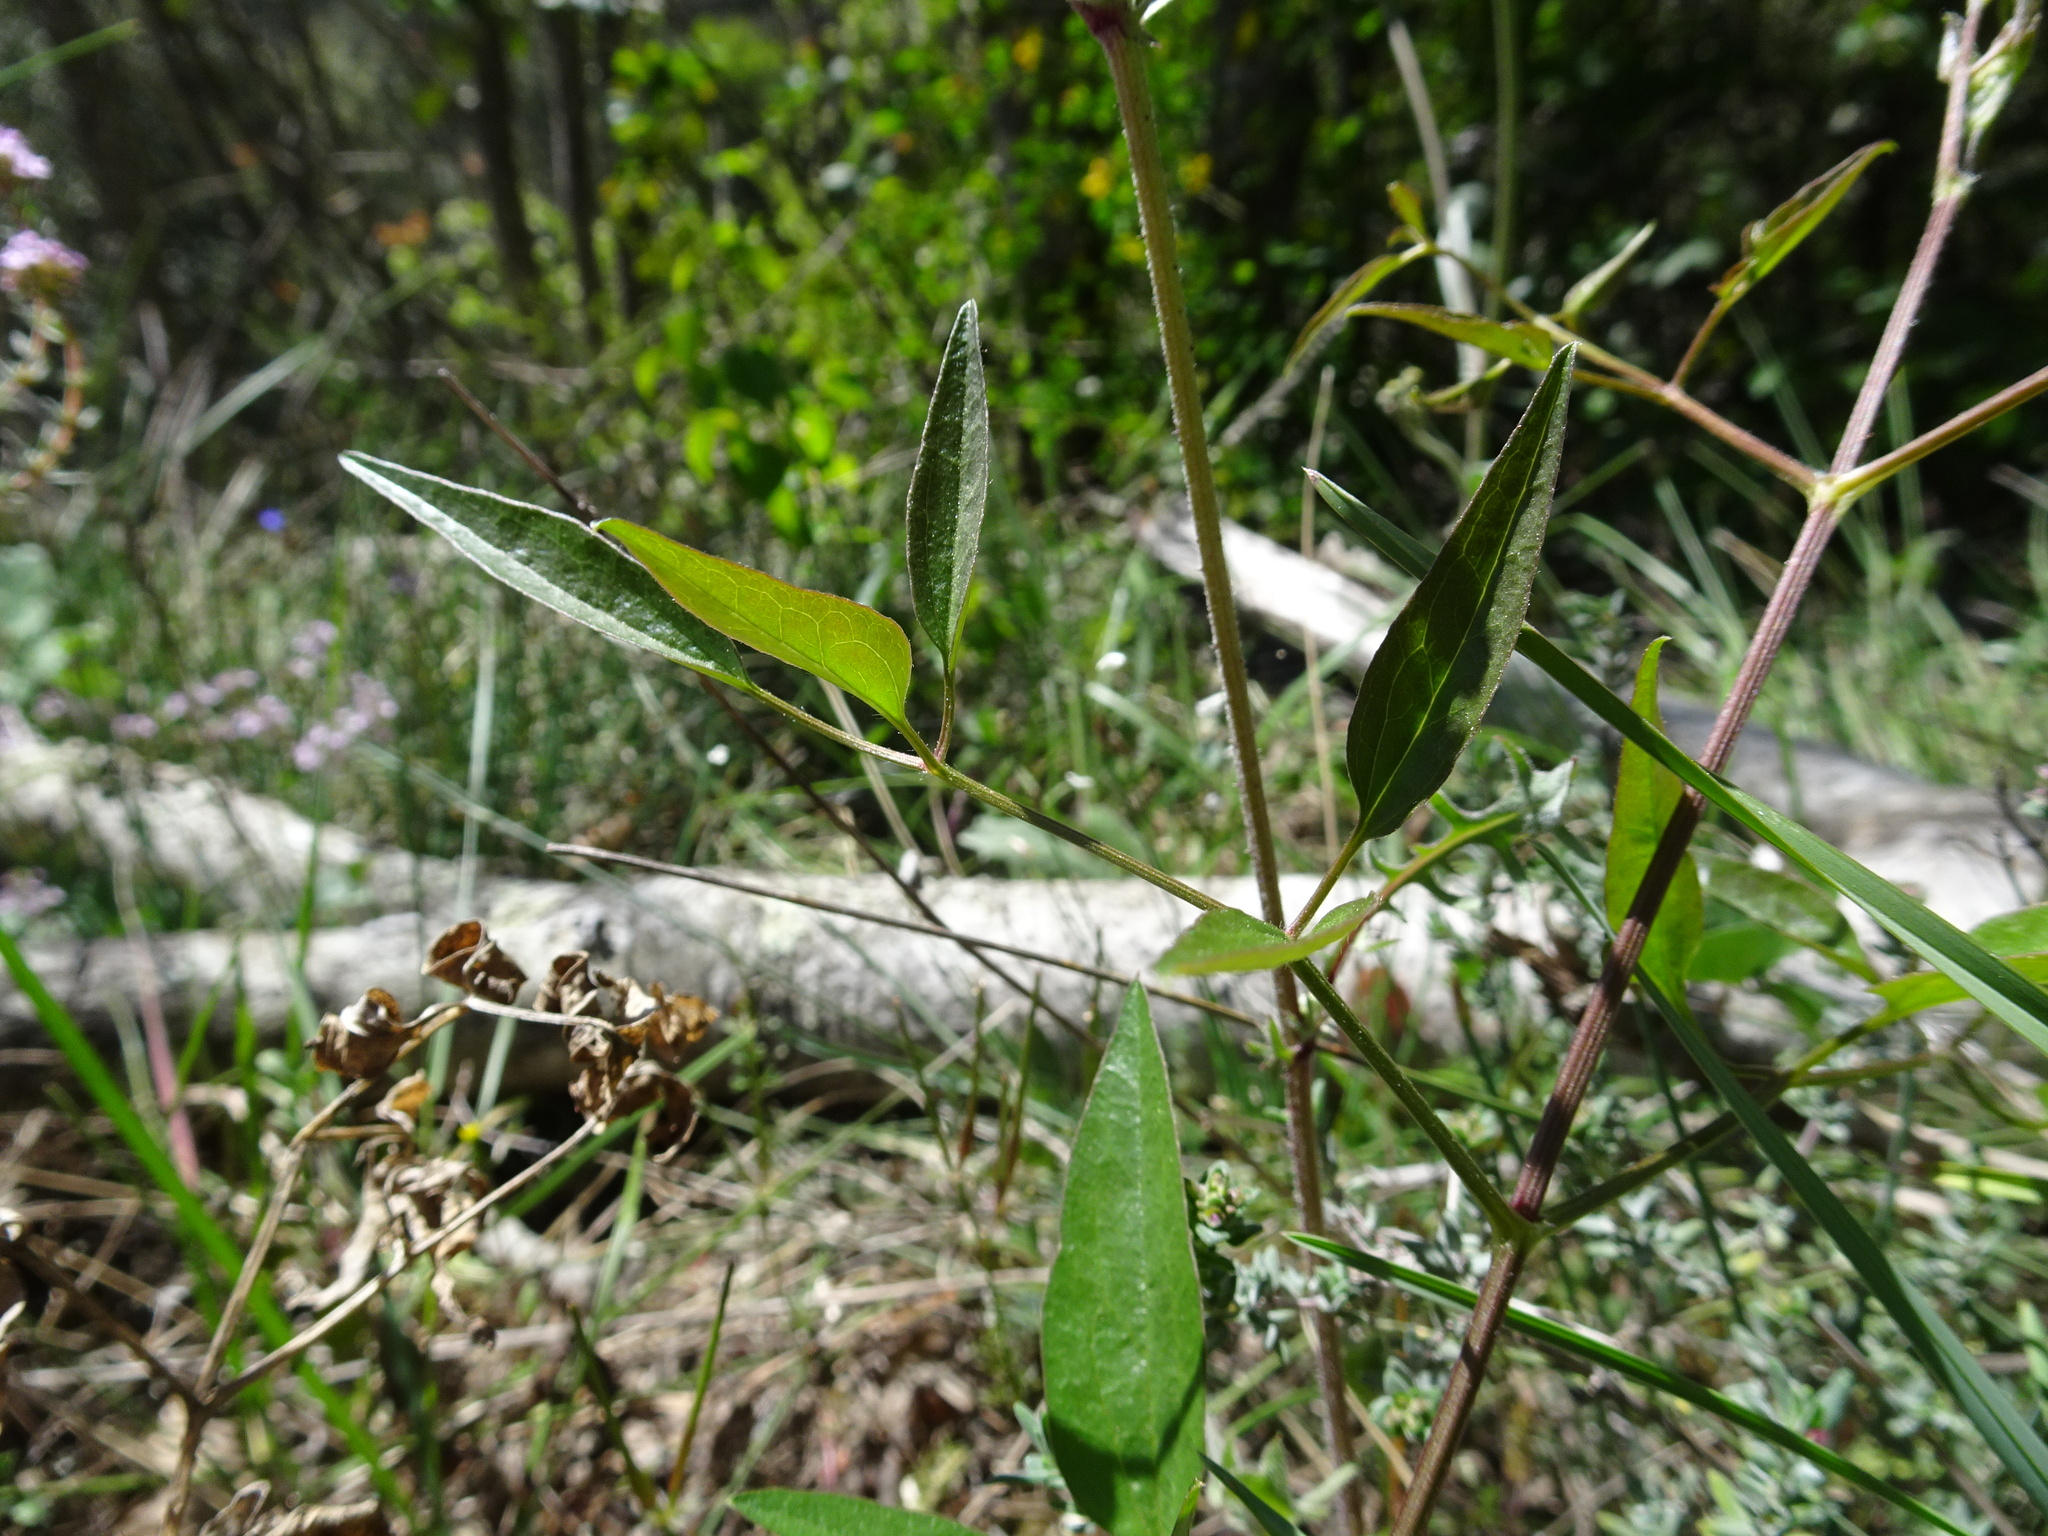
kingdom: Plantae
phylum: Tracheophyta
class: Magnoliopsida
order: Ranunculales
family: Ranunculaceae
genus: Clematis
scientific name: Clematis flammula
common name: Virgin's-bower
